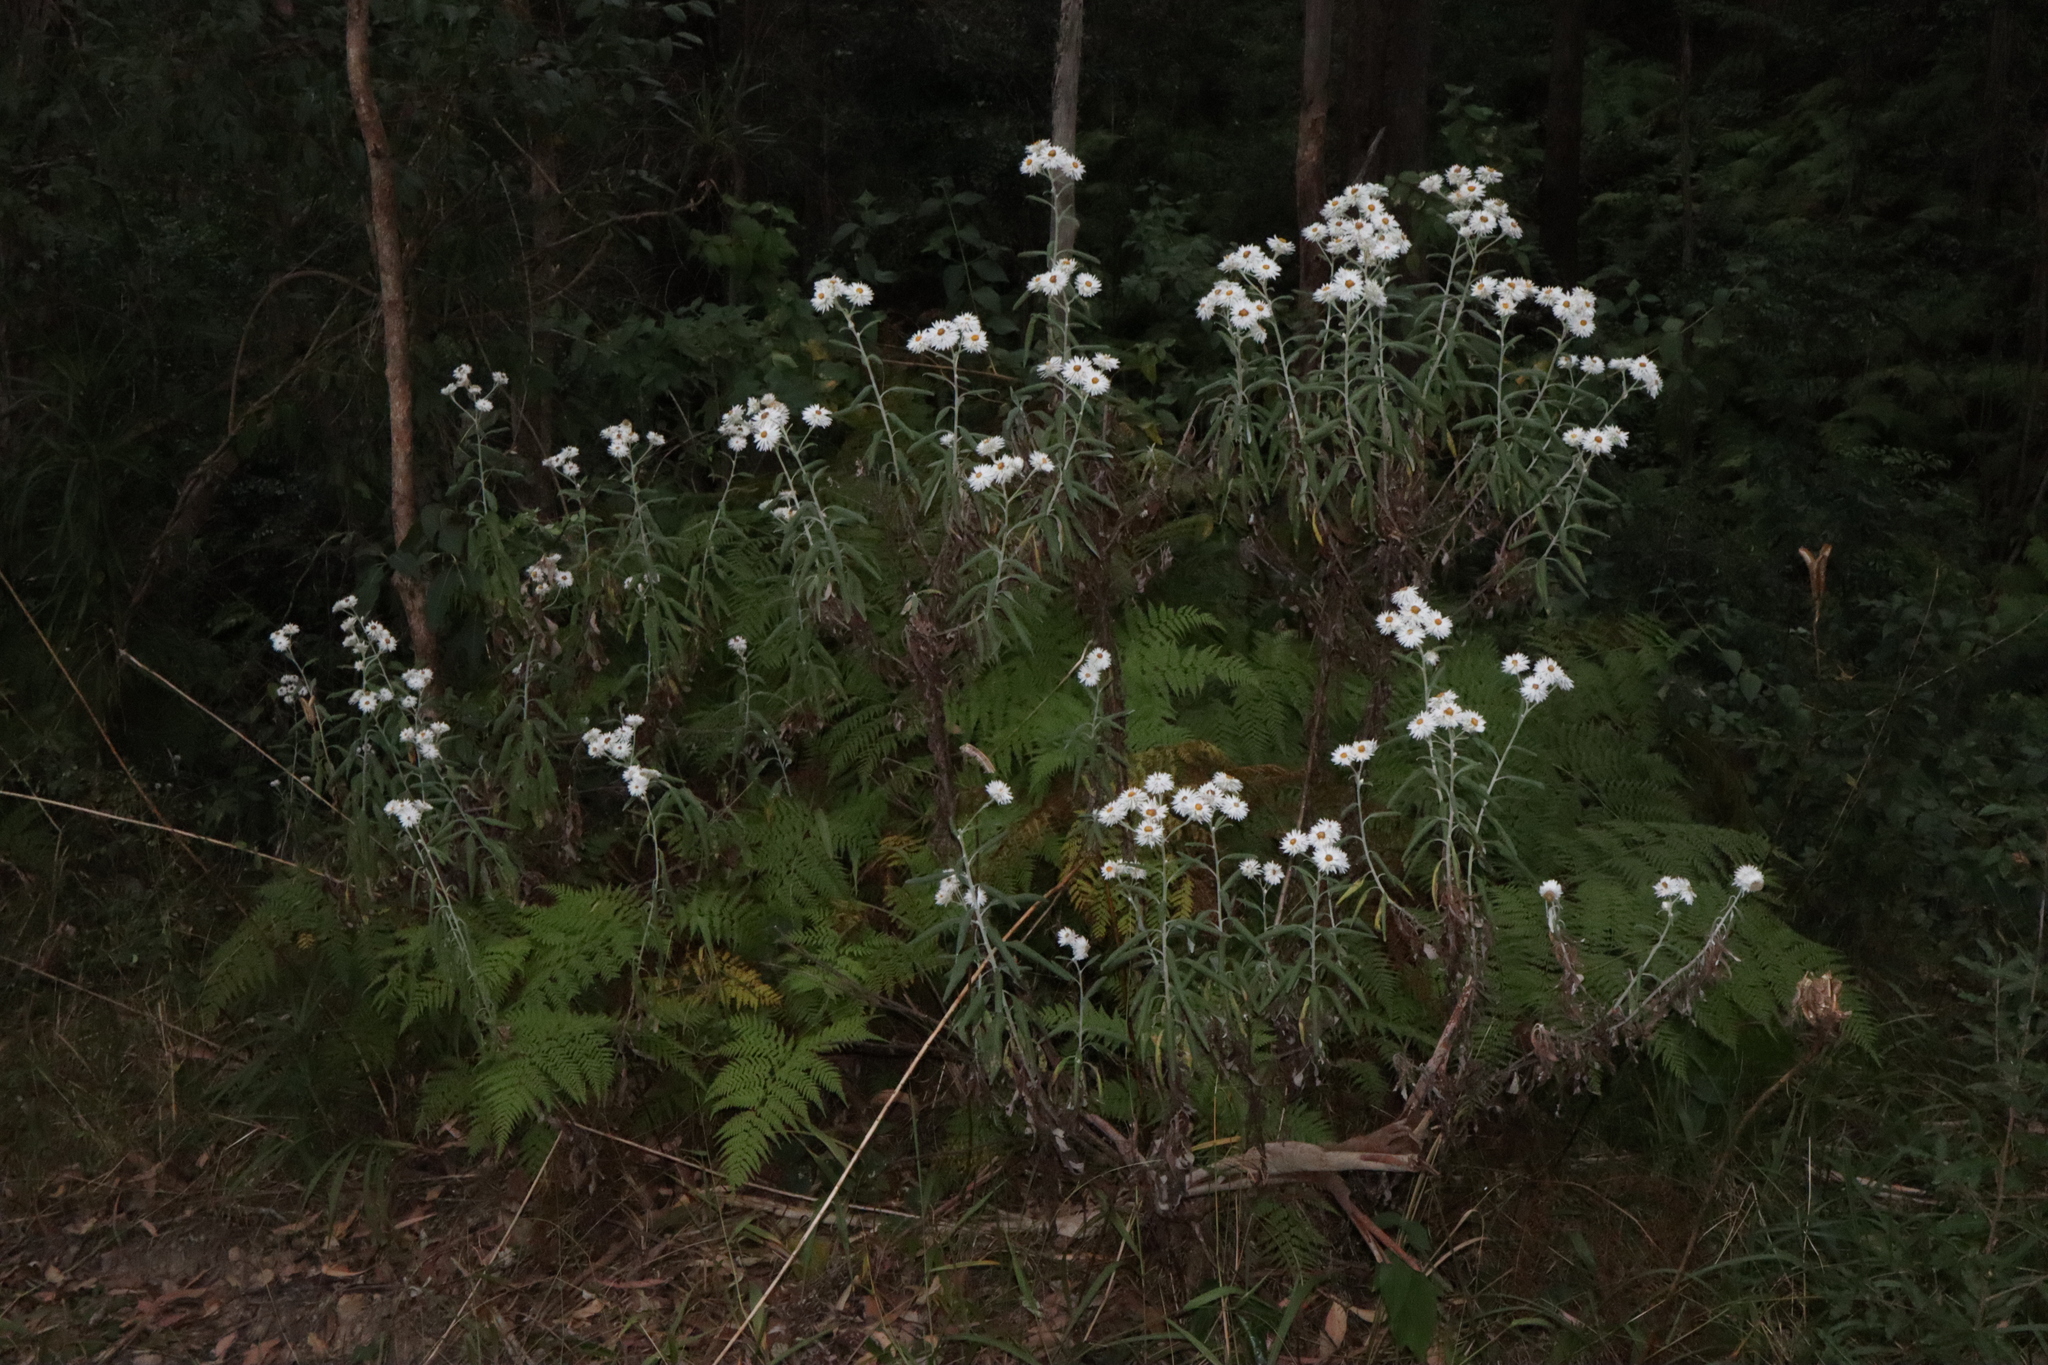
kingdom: Plantae
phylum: Tracheophyta
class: Magnoliopsida
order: Asterales
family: Asteraceae
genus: Leucozoma
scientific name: Leucozoma elatum
